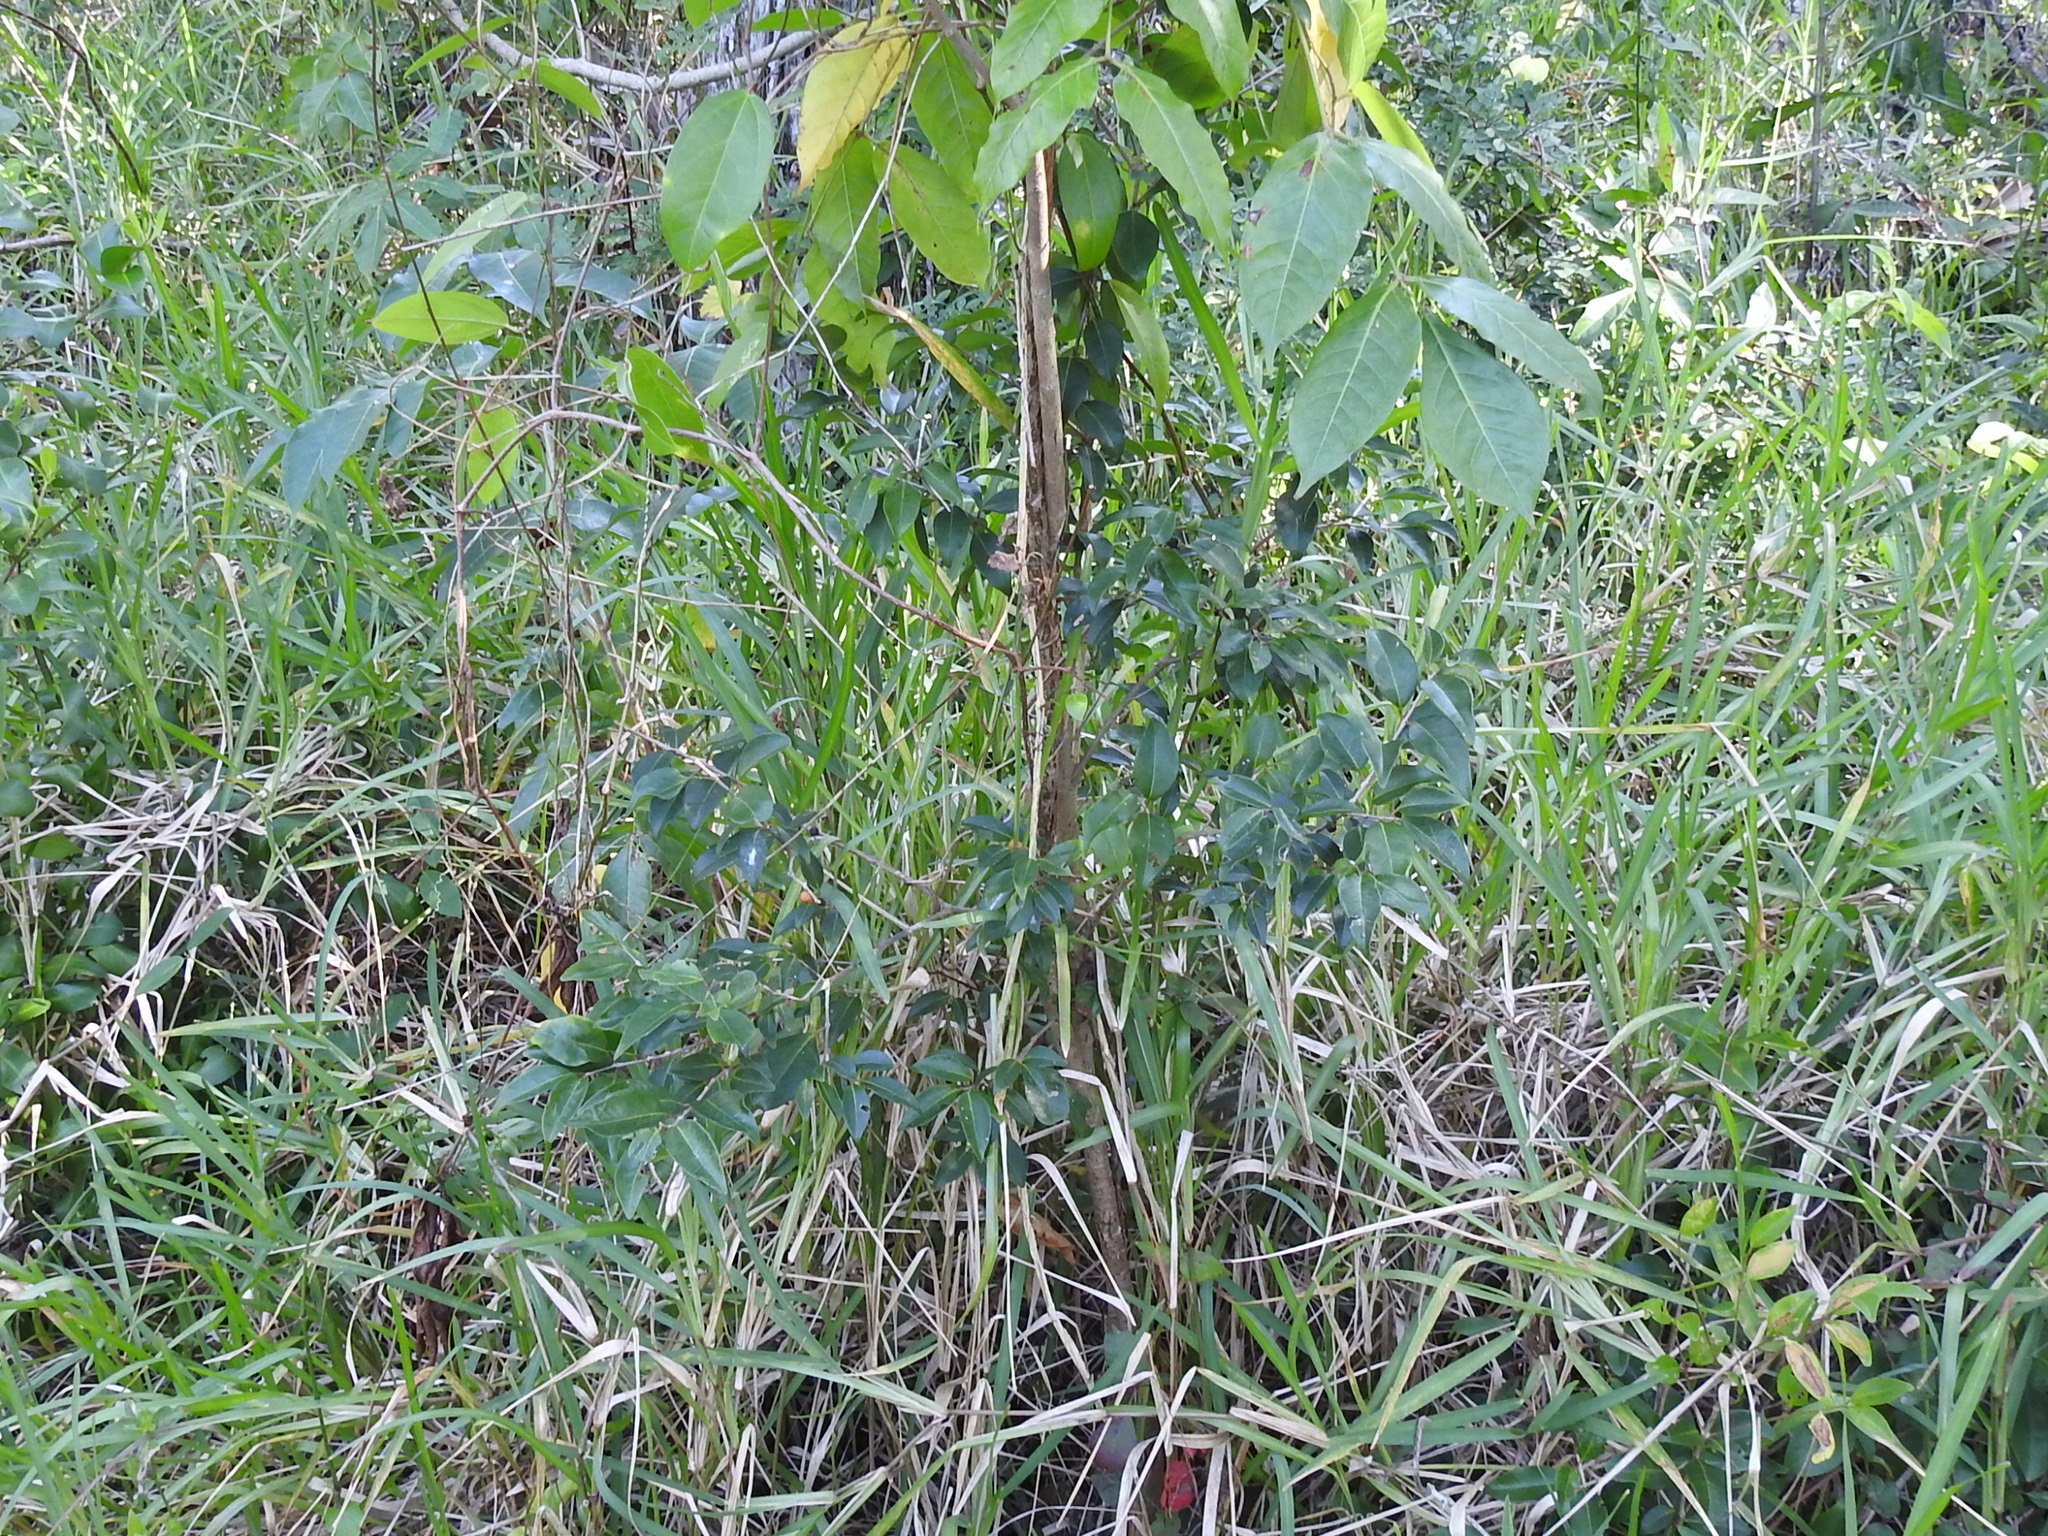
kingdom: Plantae
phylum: Tracheophyta
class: Magnoliopsida
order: Myrtales
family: Myrtaceae
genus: Eugenia
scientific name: Eugenia axillaris
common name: Choaky berry
